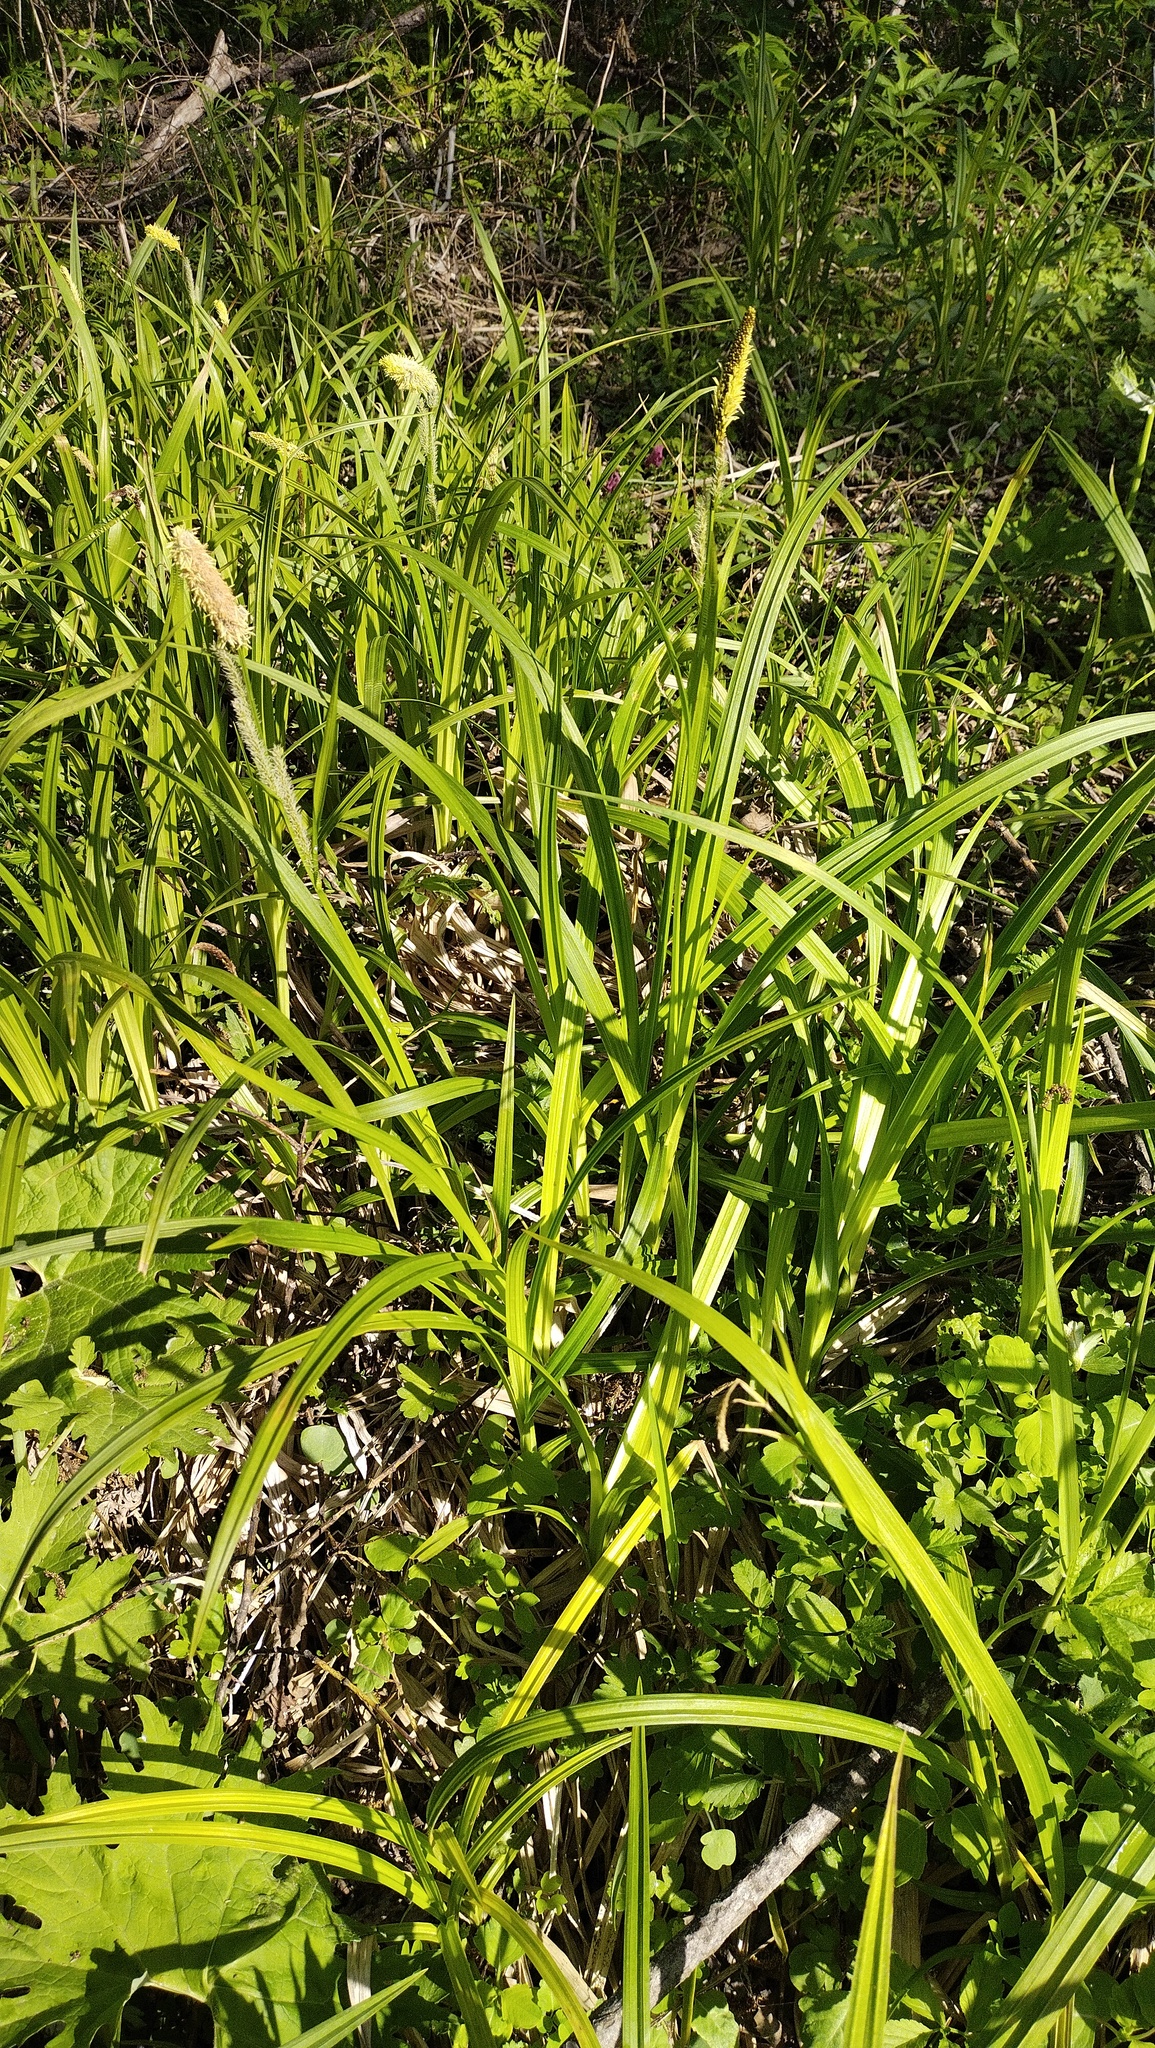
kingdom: Plantae
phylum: Tracheophyta
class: Liliopsida
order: Poales
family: Cyperaceae
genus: Carex
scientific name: Carex dispalata
